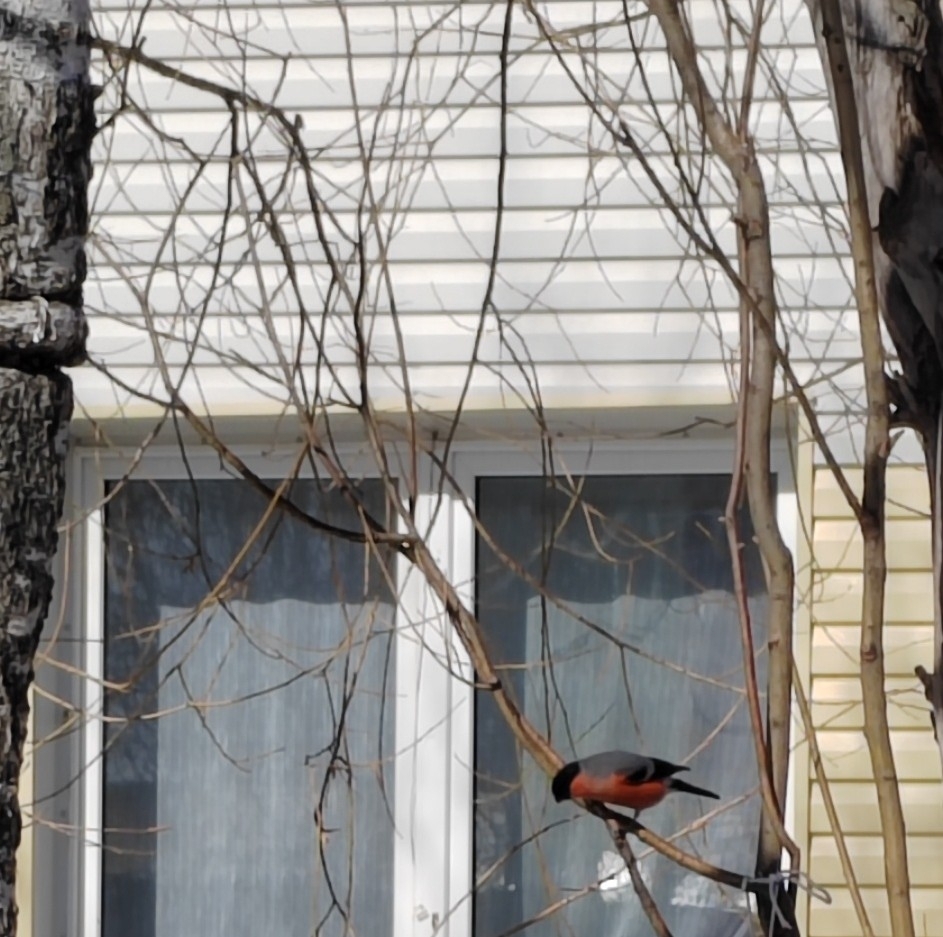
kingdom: Animalia
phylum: Chordata
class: Aves
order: Passeriformes
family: Fringillidae
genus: Pyrrhula
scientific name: Pyrrhula pyrrhula
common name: Eurasian bullfinch
